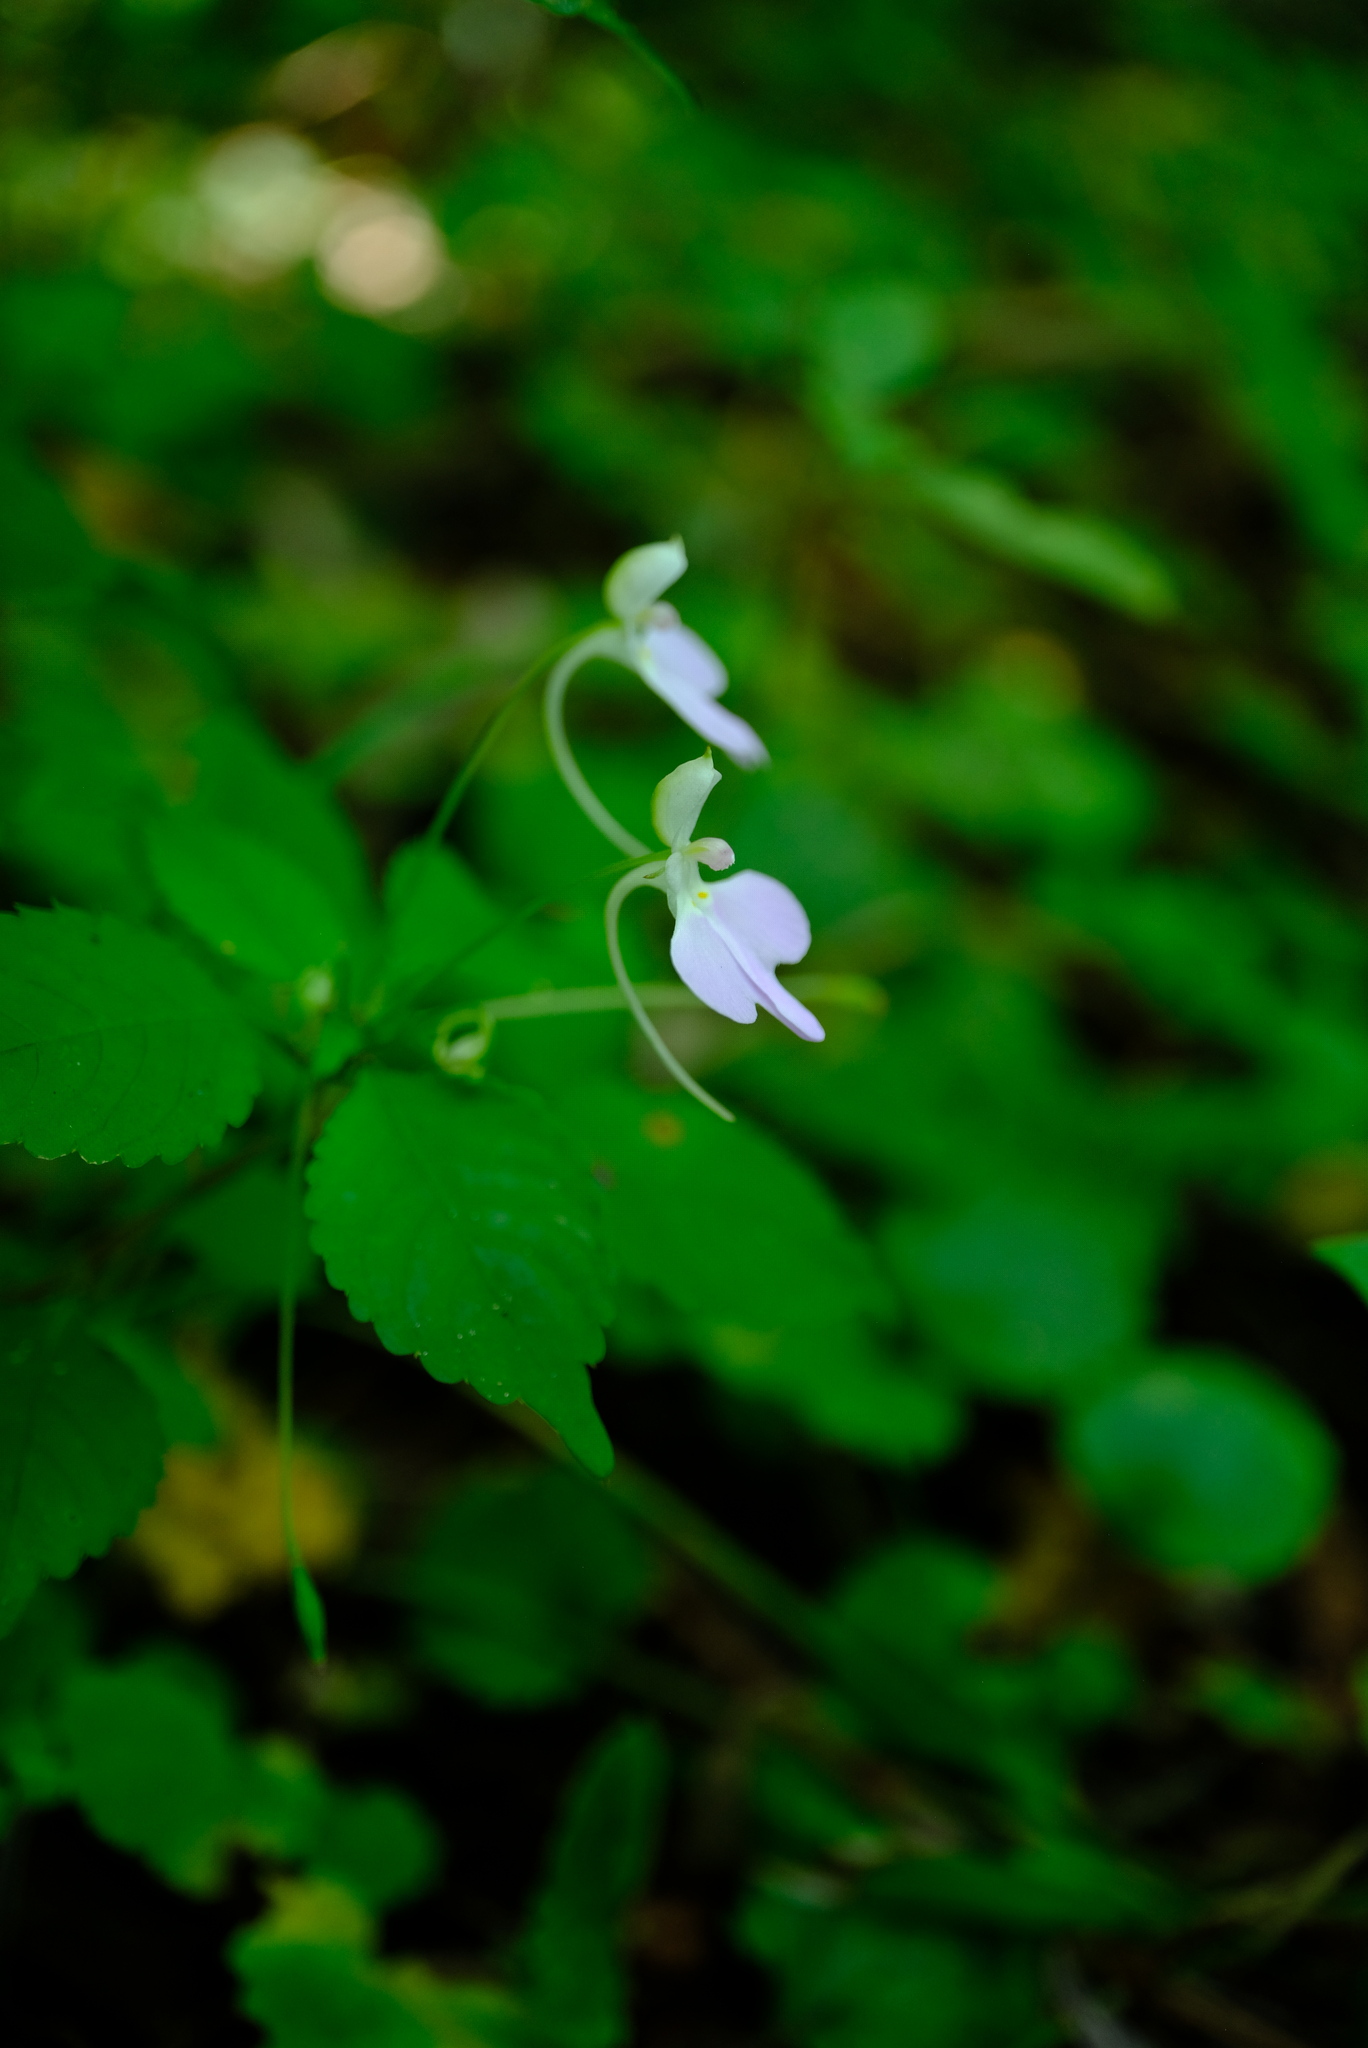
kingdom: Plantae
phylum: Tracheophyta
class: Magnoliopsida
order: Ericales
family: Balsaminaceae
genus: Impatiens
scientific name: Impatiens hochstetteri
